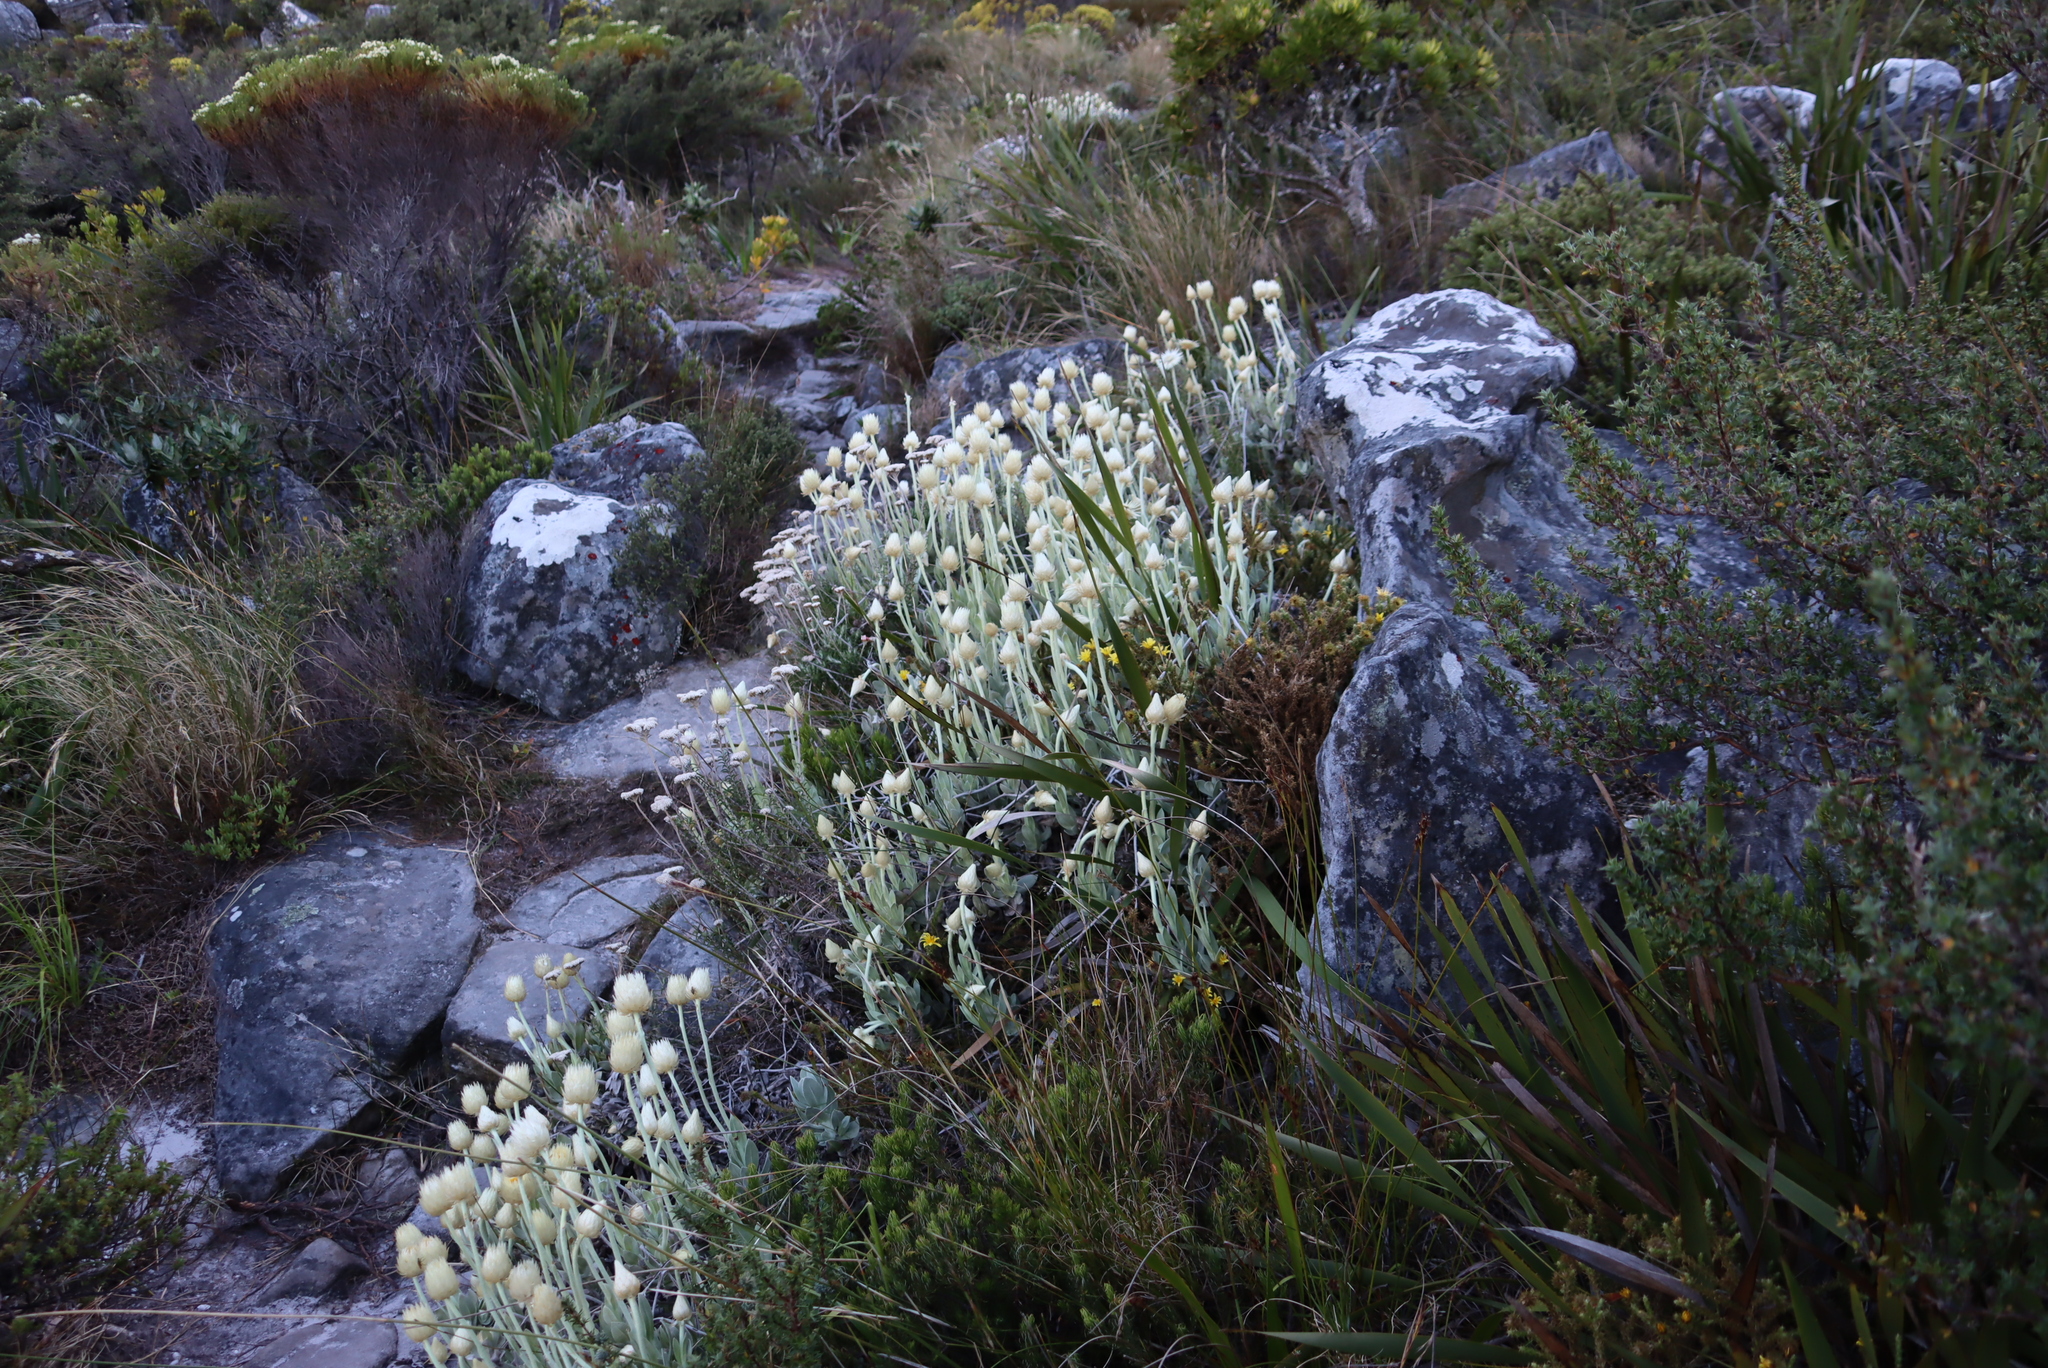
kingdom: Plantae
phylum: Tracheophyta
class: Magnoliopsida
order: Asterales
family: Asteraceae
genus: Syncarpha
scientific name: Syncarpha speciosissima
